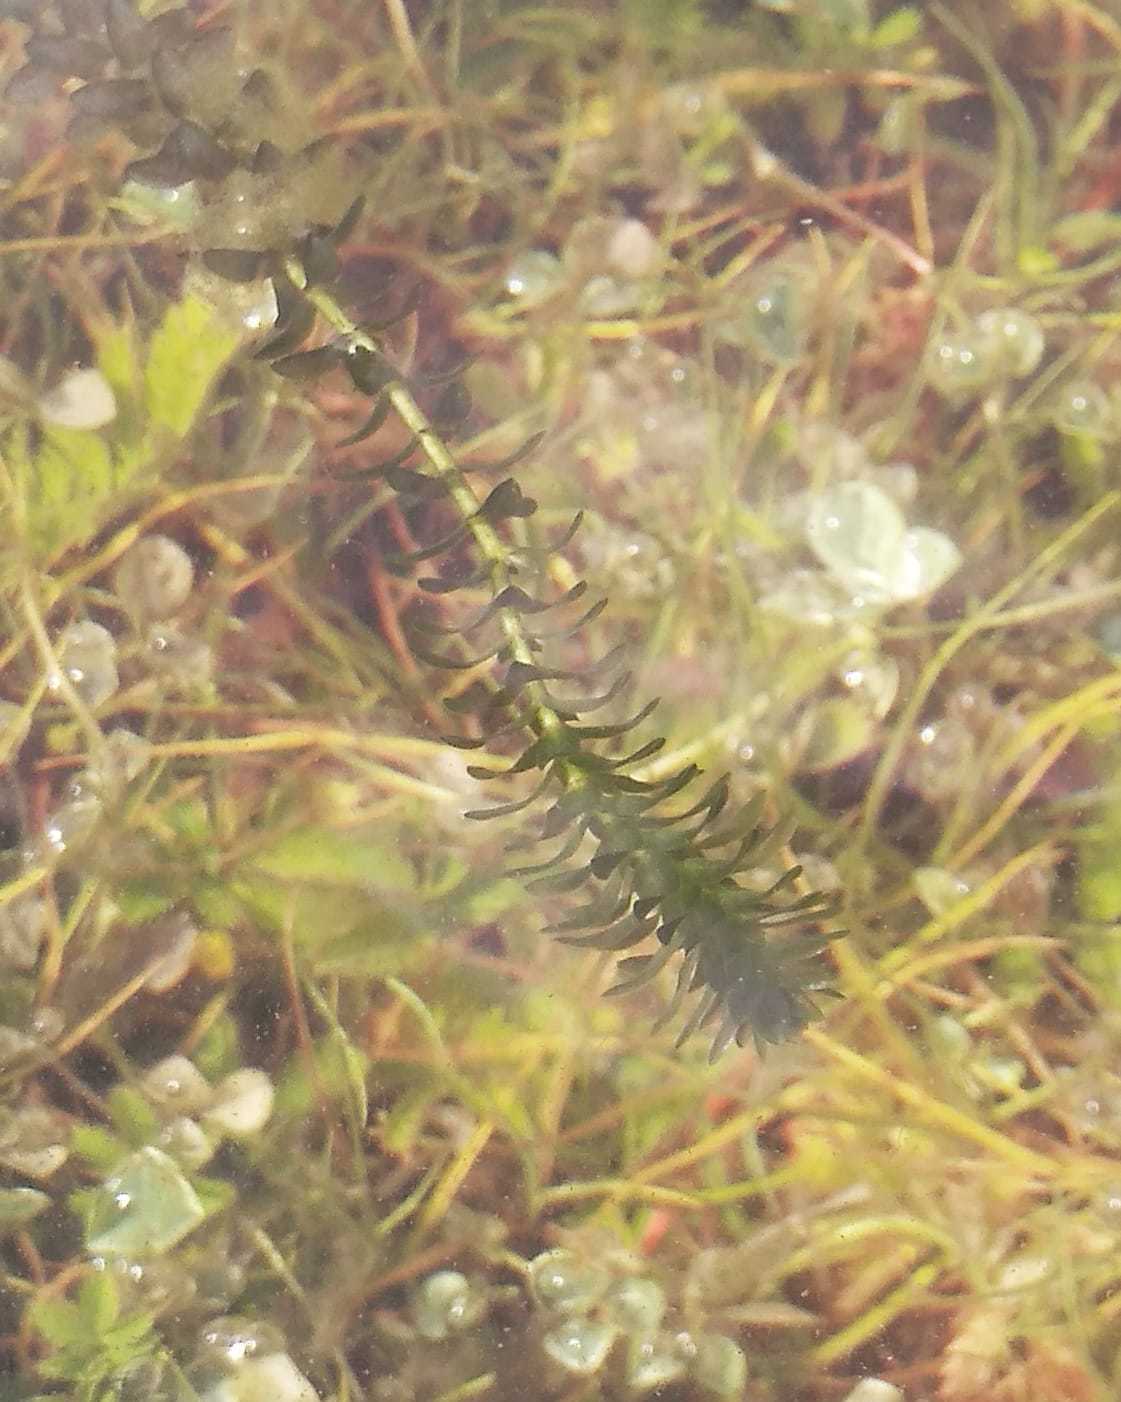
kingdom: Plantae
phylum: Tracheophyta
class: Liliopsida
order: Alismatales
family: Hydrocharitaceae
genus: Elodea
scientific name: Elodea canadensis
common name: Canadian waterweed
